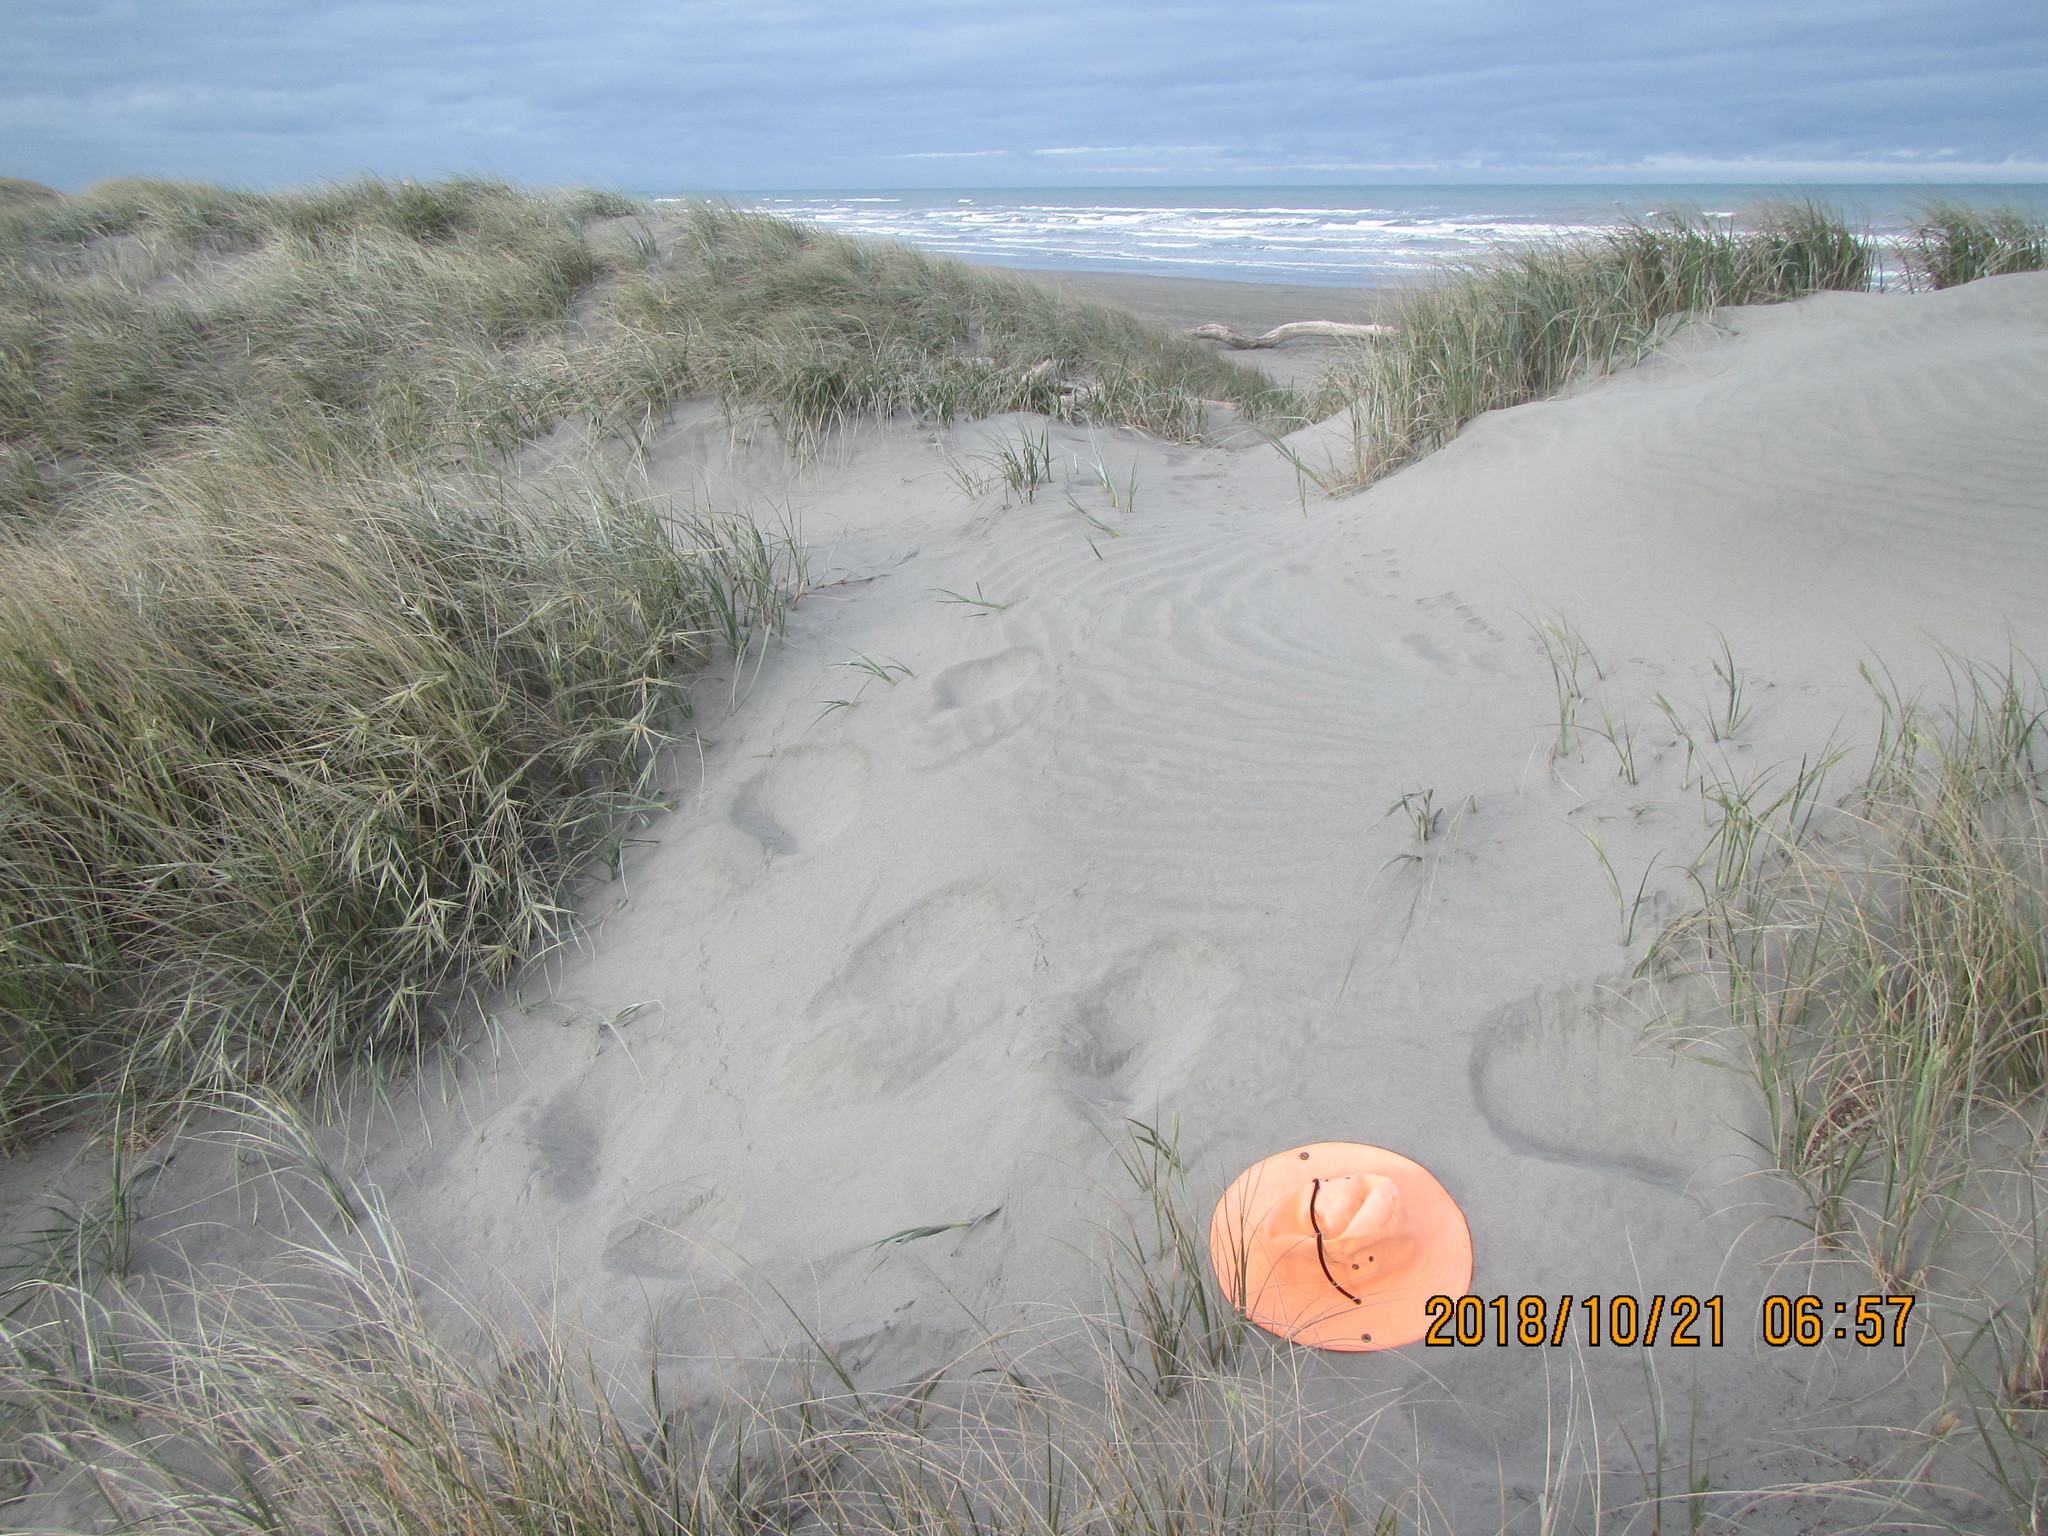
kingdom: Animalia
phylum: Arthropoda
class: Arachnida
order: Araneae
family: Lycosidae
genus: Anoteropsis
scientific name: Anoteropsis litoralis
